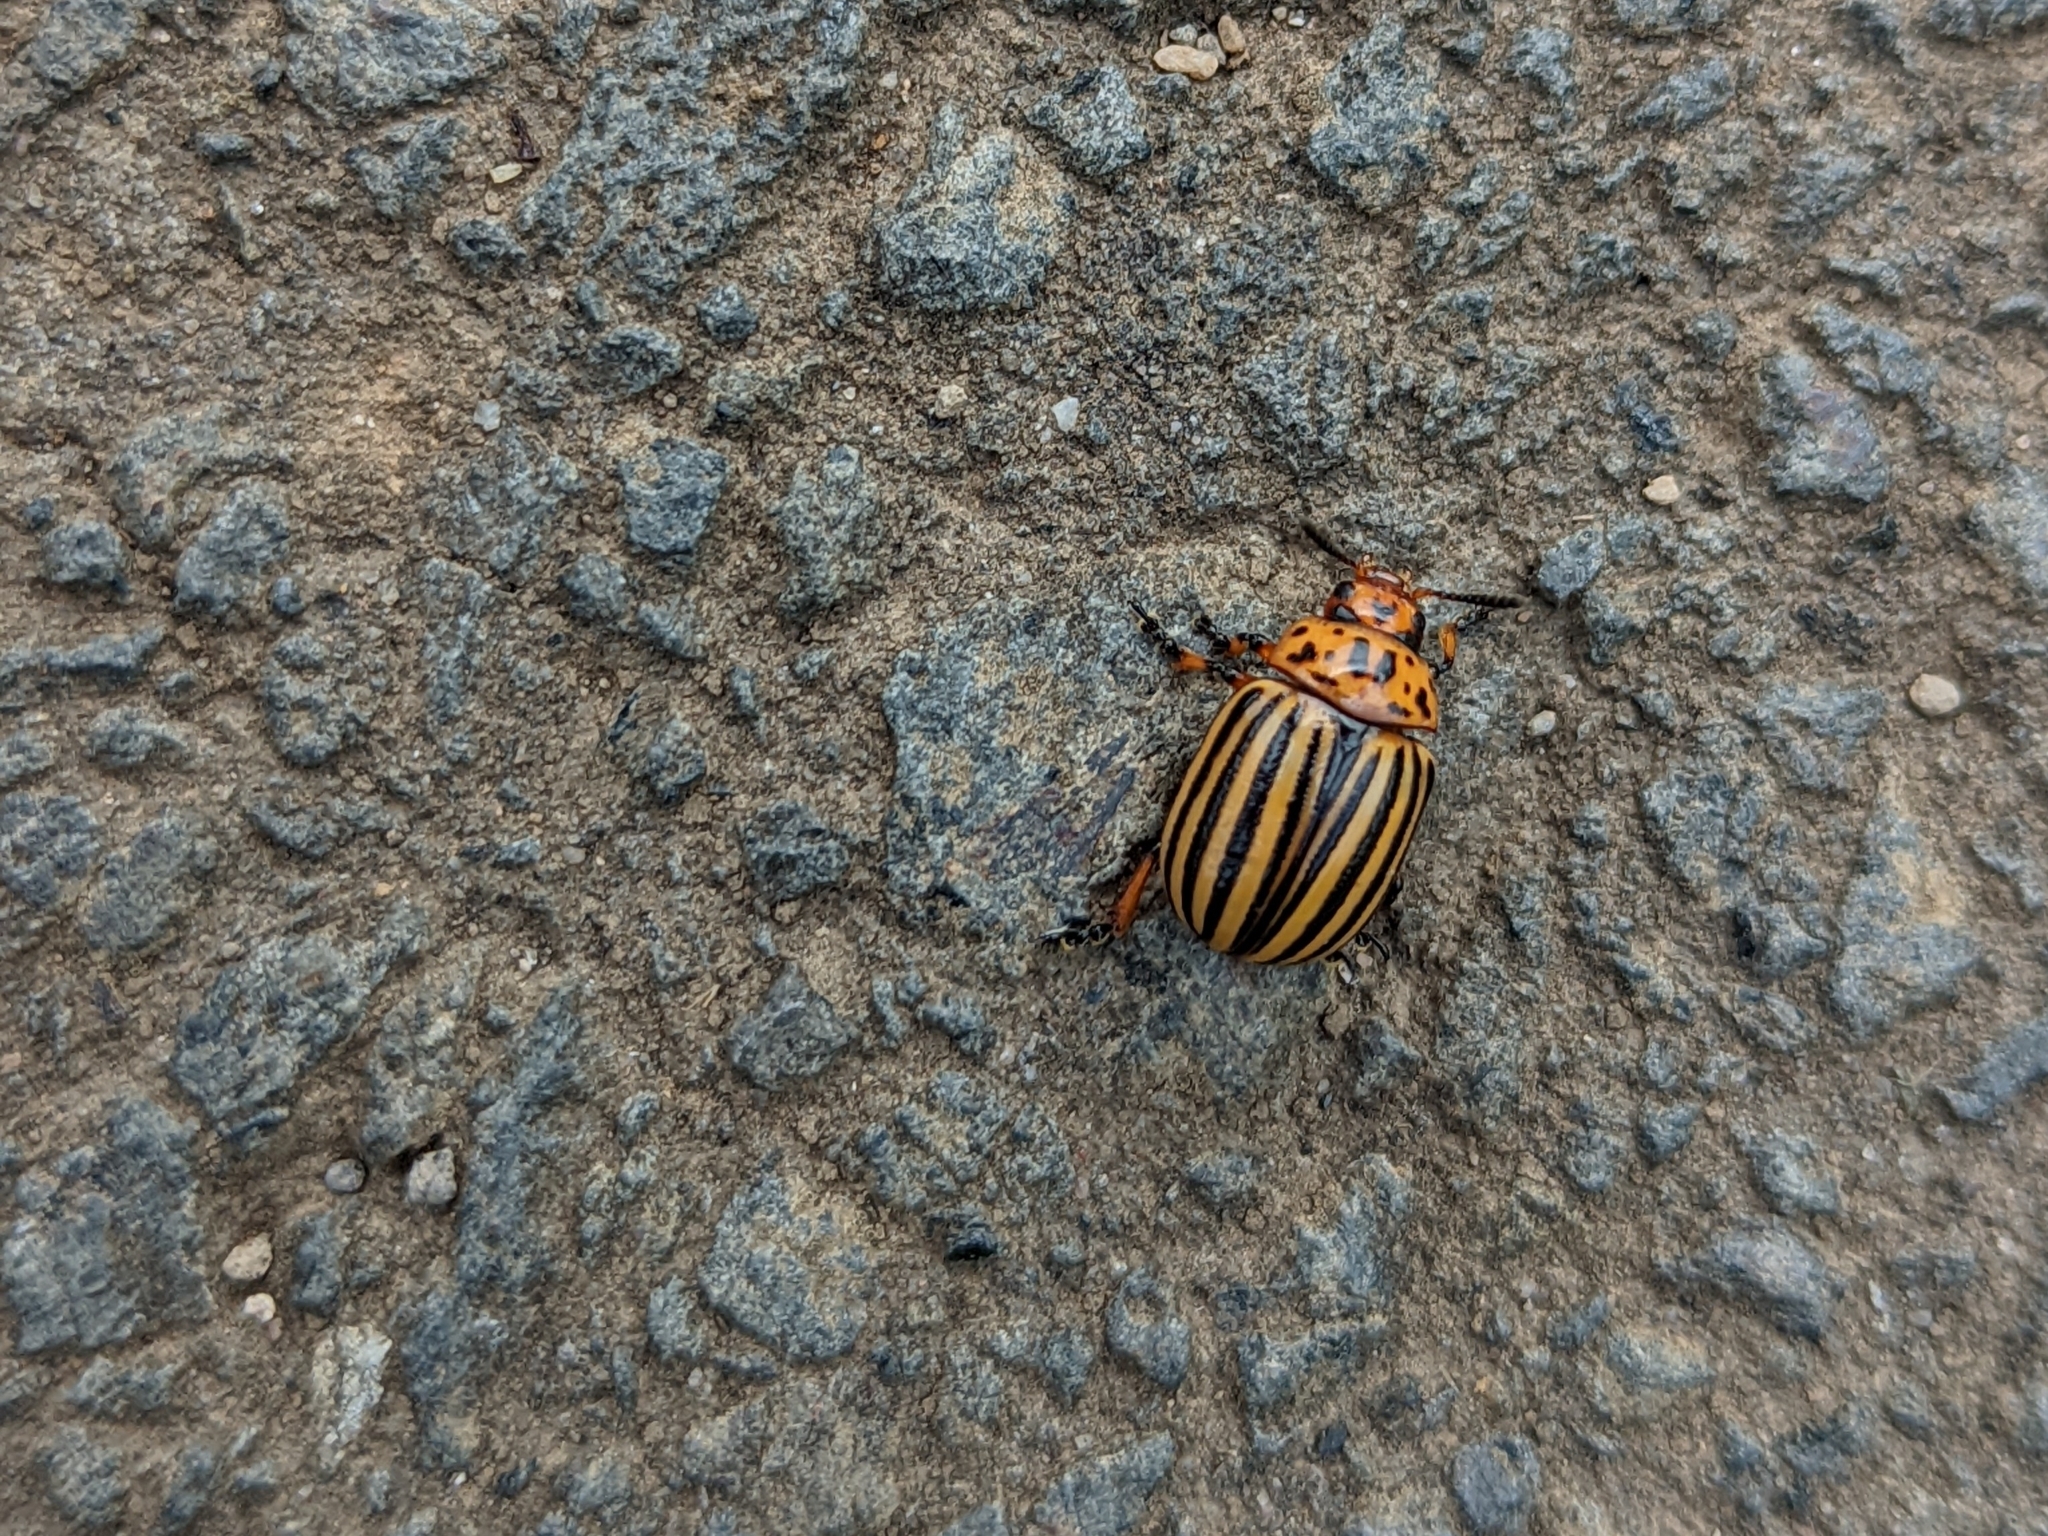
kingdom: Animalia
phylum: Arthropoda
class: Insecta
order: Coleoptera
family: Chrysomelidae
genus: Leptinotarsa
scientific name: Leptinotarsa decemlineata
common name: Colorado potato beetle
